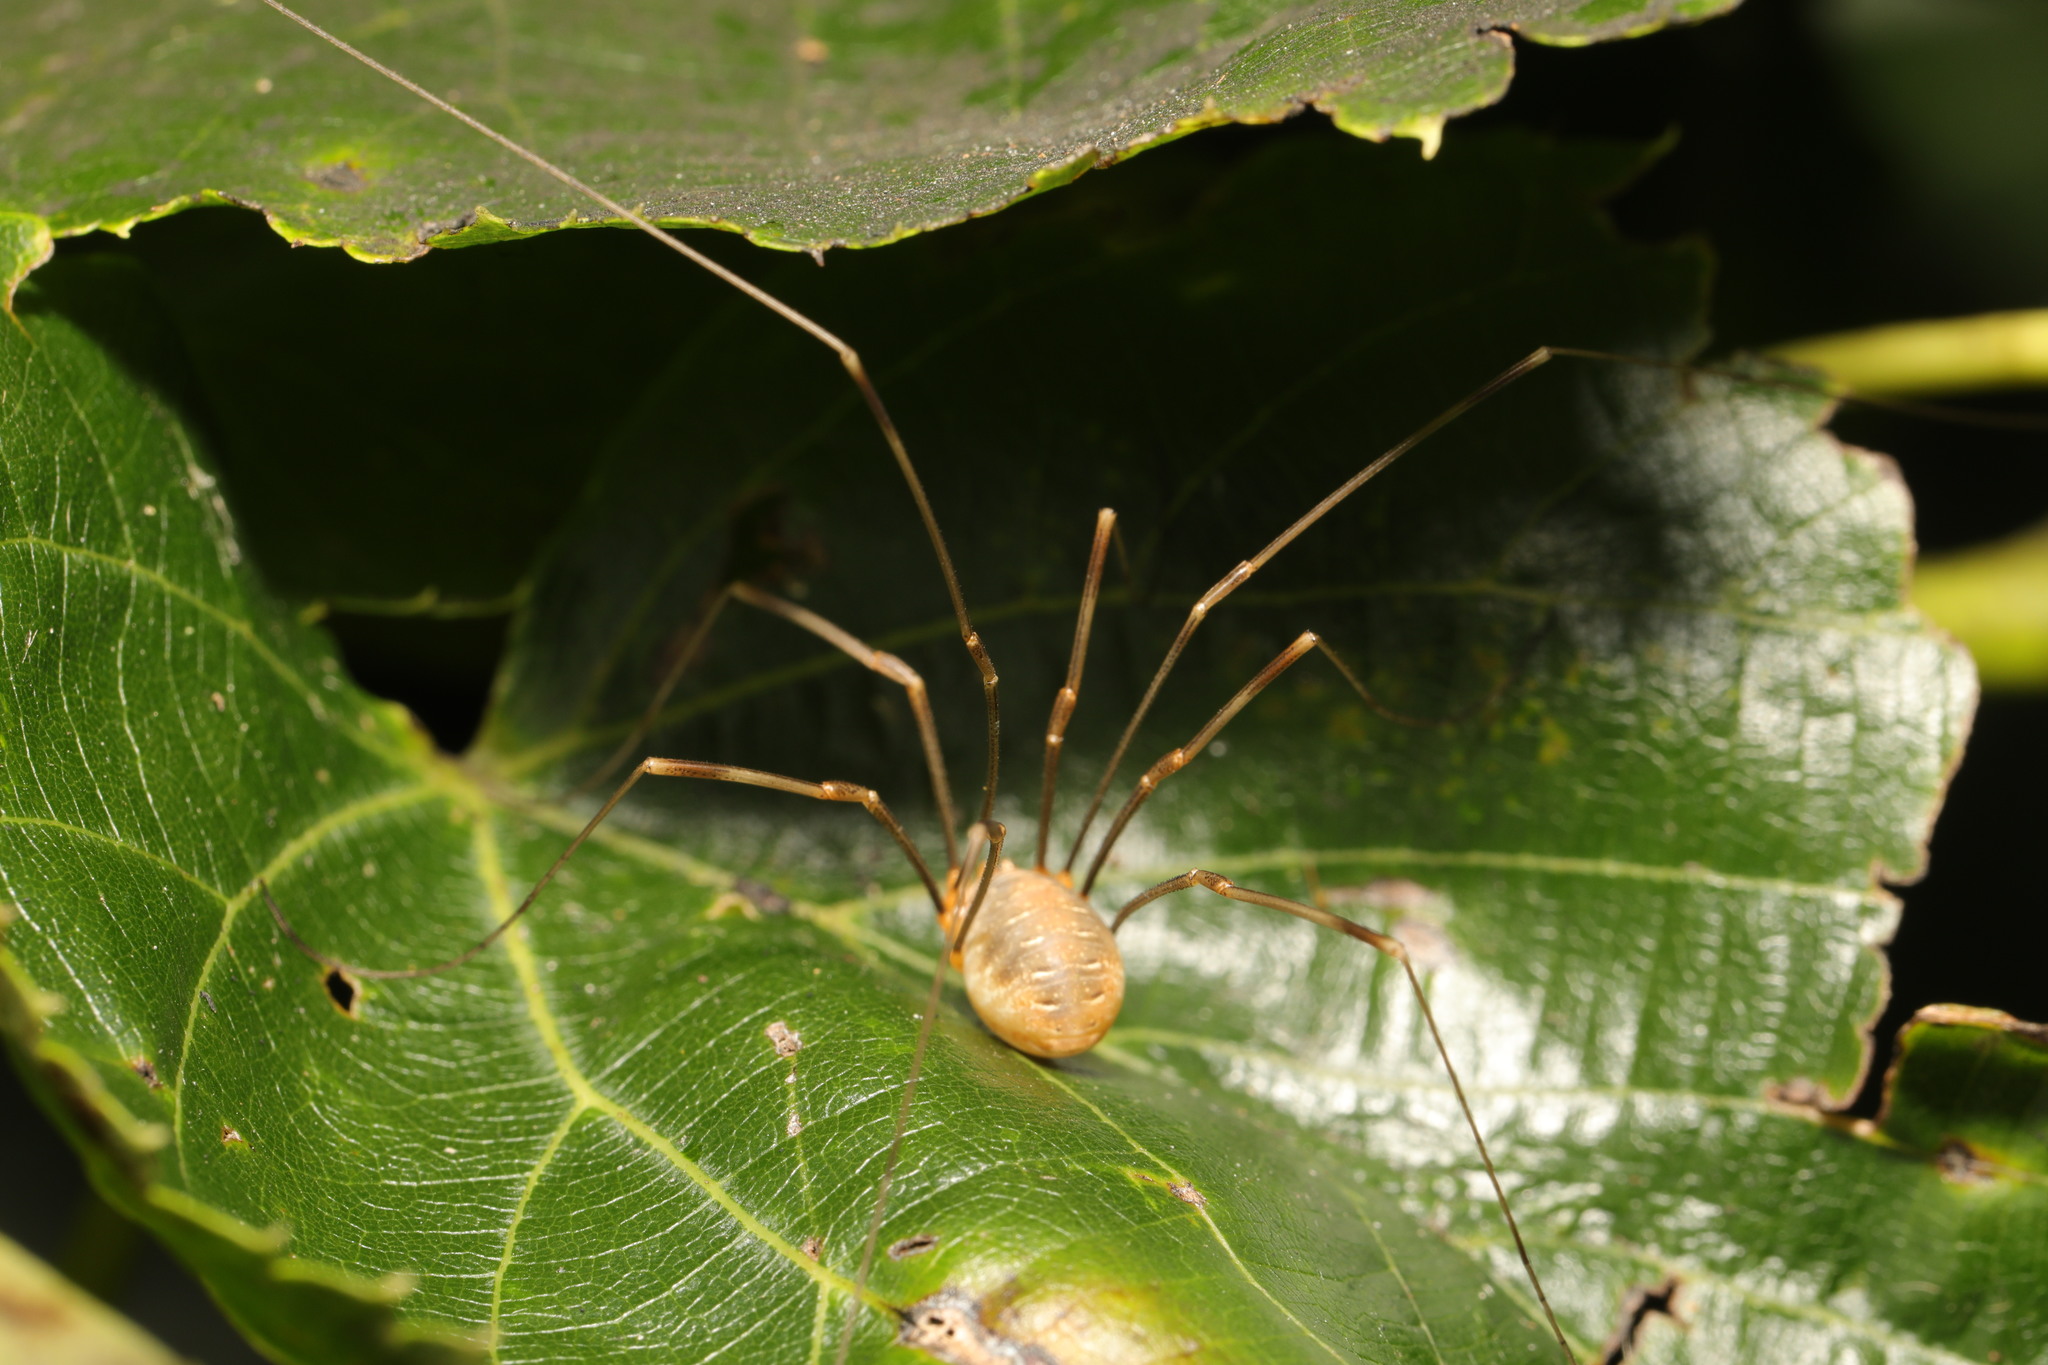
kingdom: Animalia
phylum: Arthropoda
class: Arachnida
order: Opiliones
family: Phalangiidae
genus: Opilio
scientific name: Opilio canestrinii
